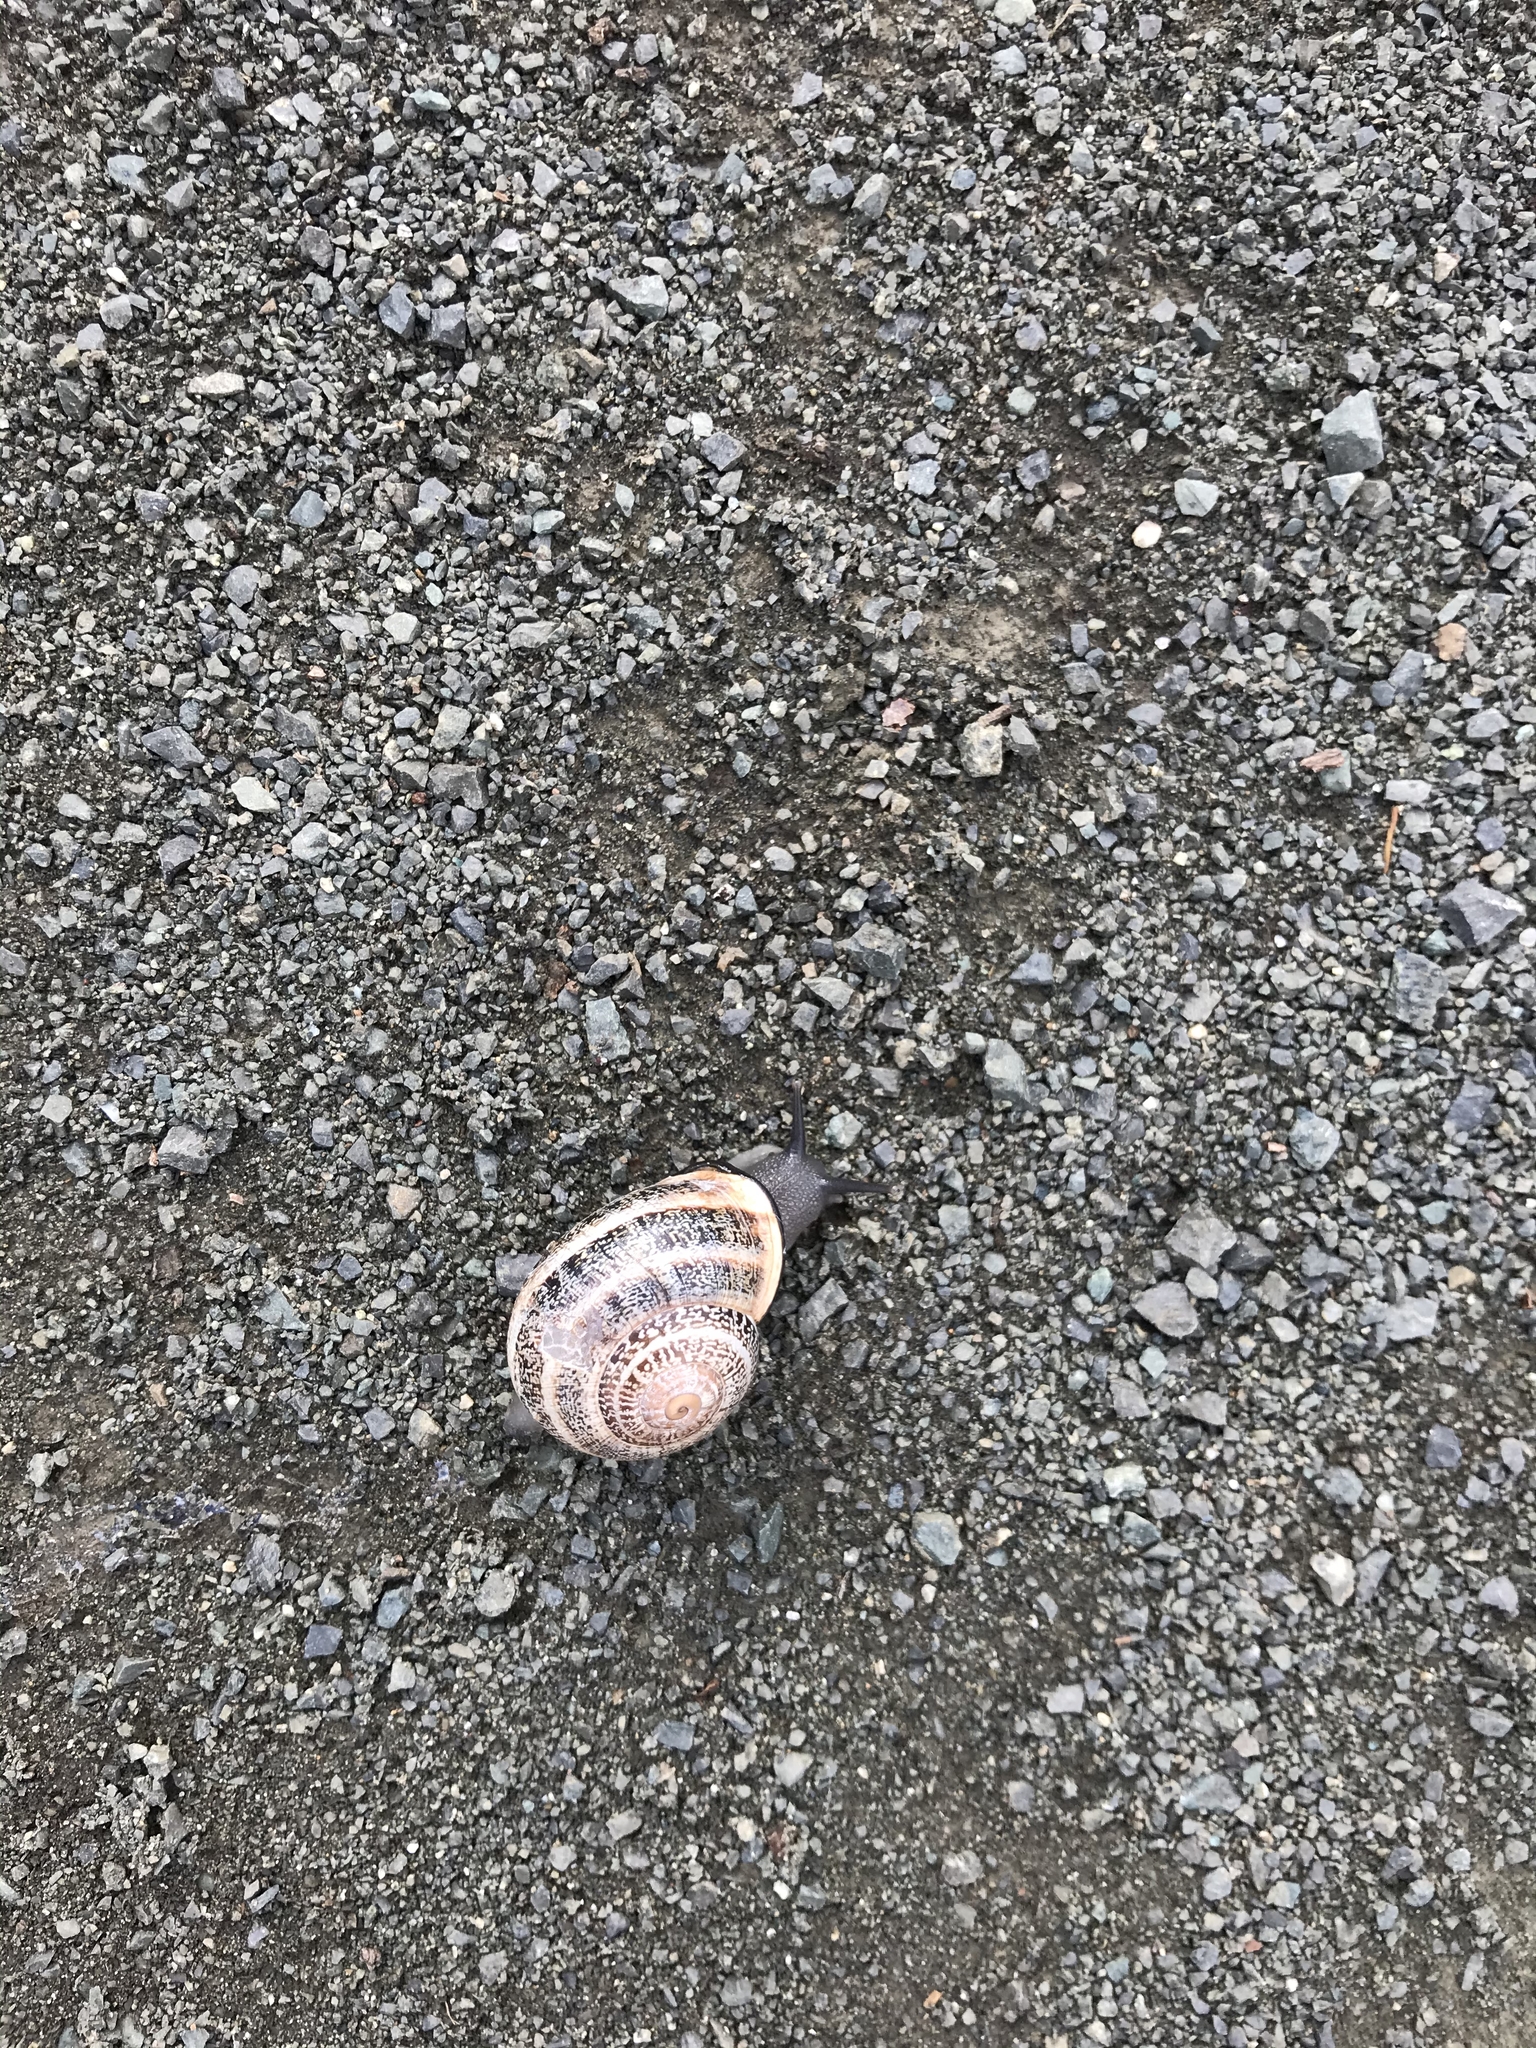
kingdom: Animalia
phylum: Mollusca
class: Gastropoda
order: Stylommatophora
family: Helicidae
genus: Otala
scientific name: Otala lactea
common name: Milk snail
